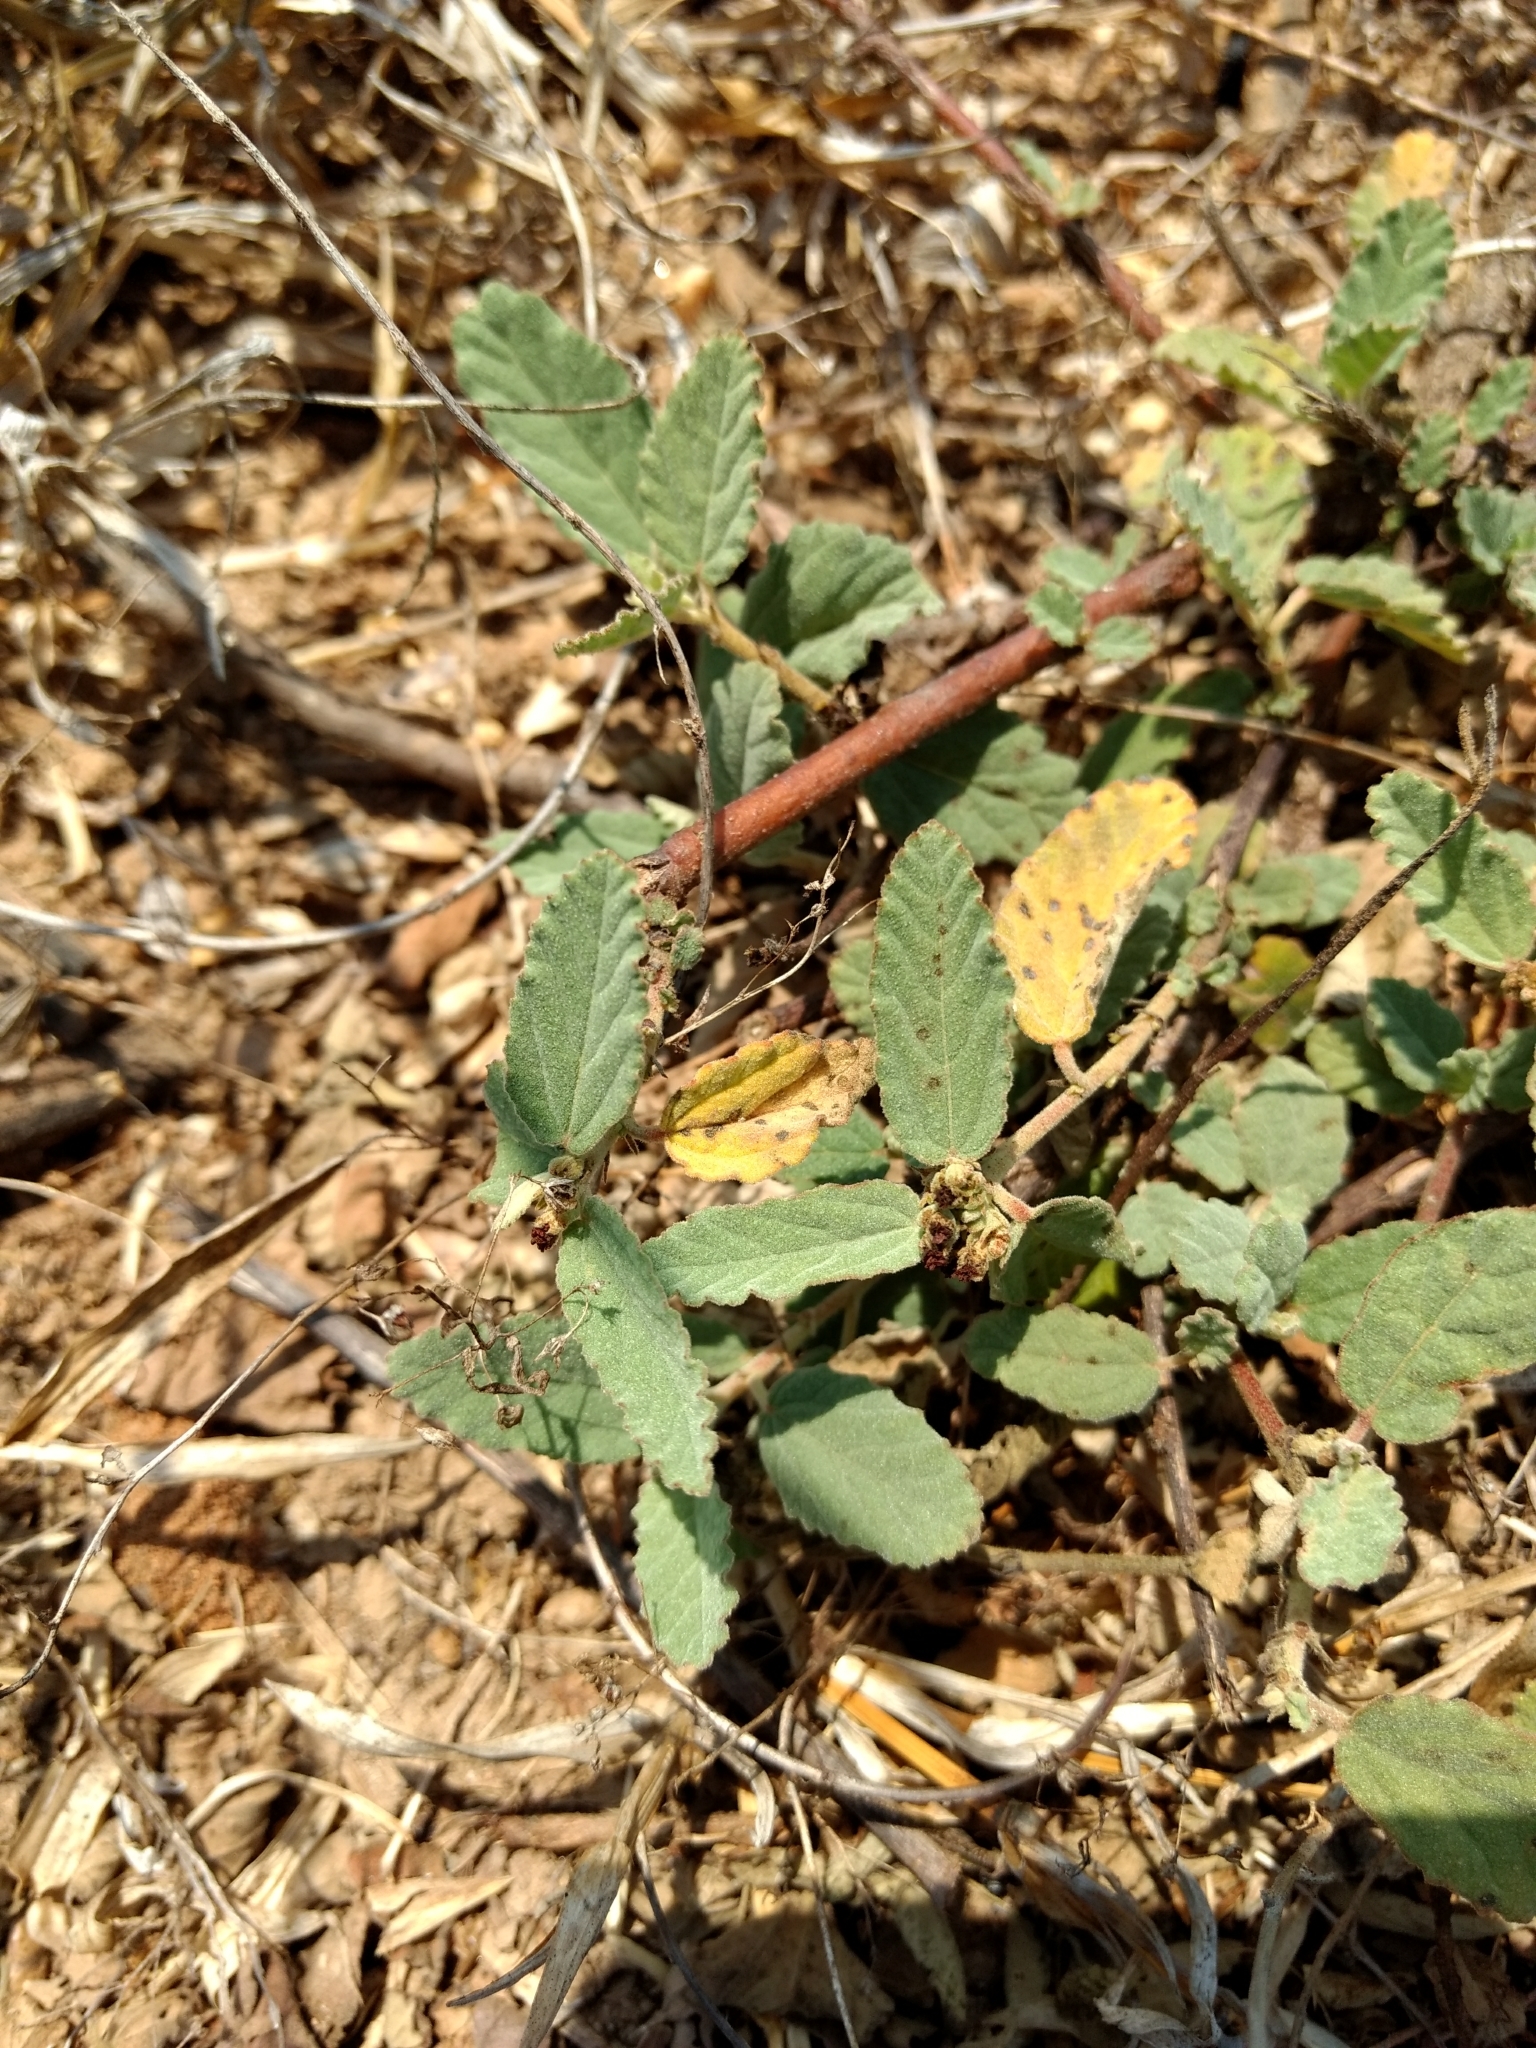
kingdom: Plantae
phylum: Tracheophyta
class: Magnoliopsida
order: Malvales
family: Malvaceae
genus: Waltheria
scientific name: Waltheria indica
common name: Leather-coat
